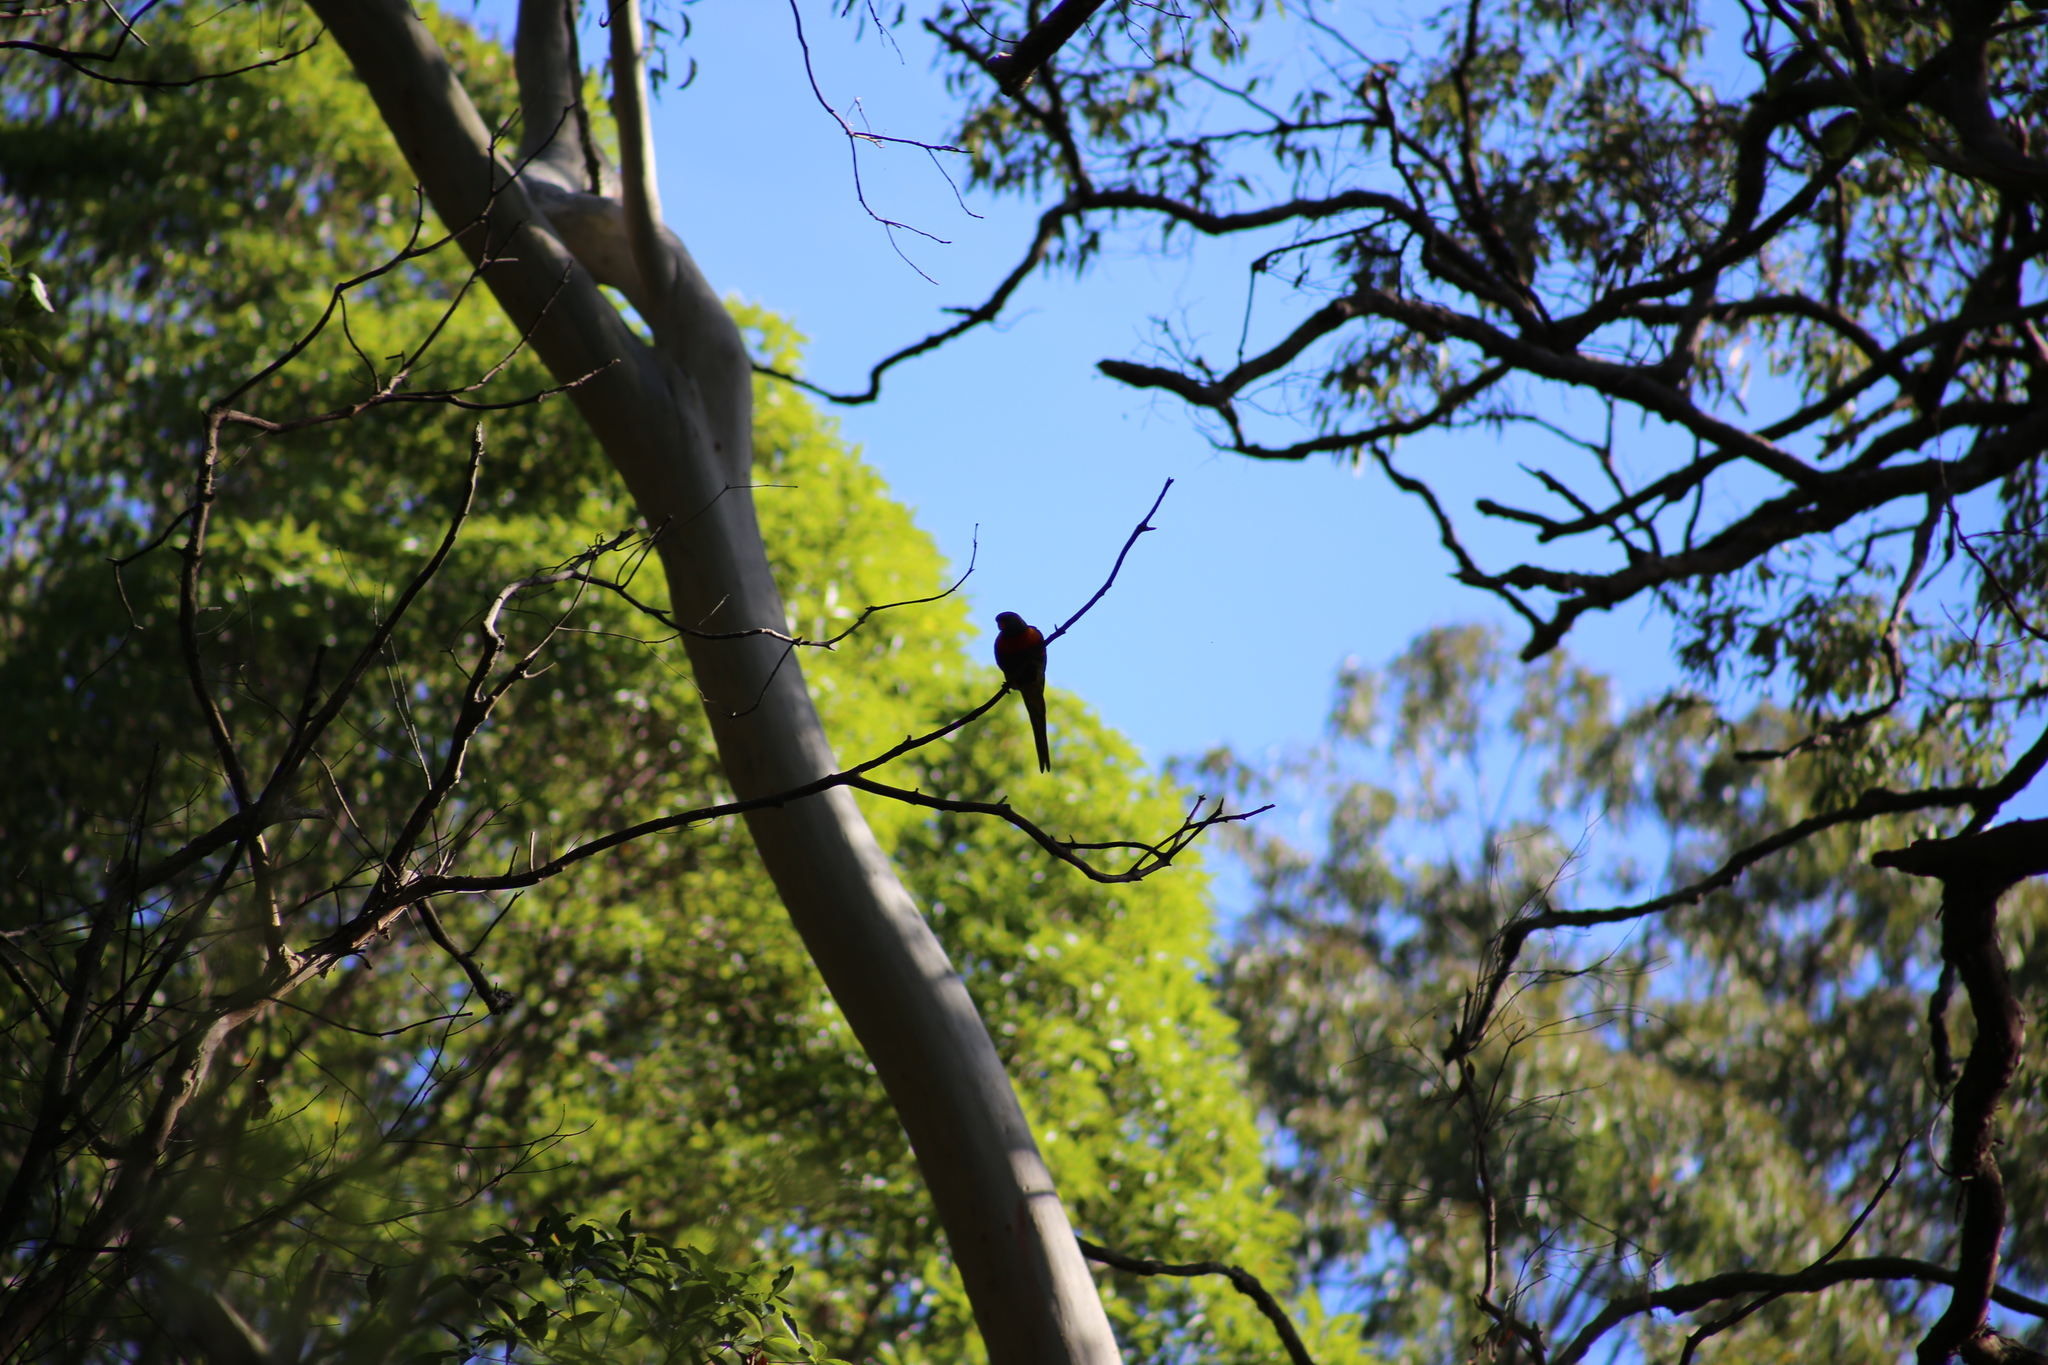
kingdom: Animalia
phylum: Chordata
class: Aves
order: Psittaciformes
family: Psittacidae
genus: Trichoglossus
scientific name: Trichoglossus haematodus
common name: Coconut lorikeet
